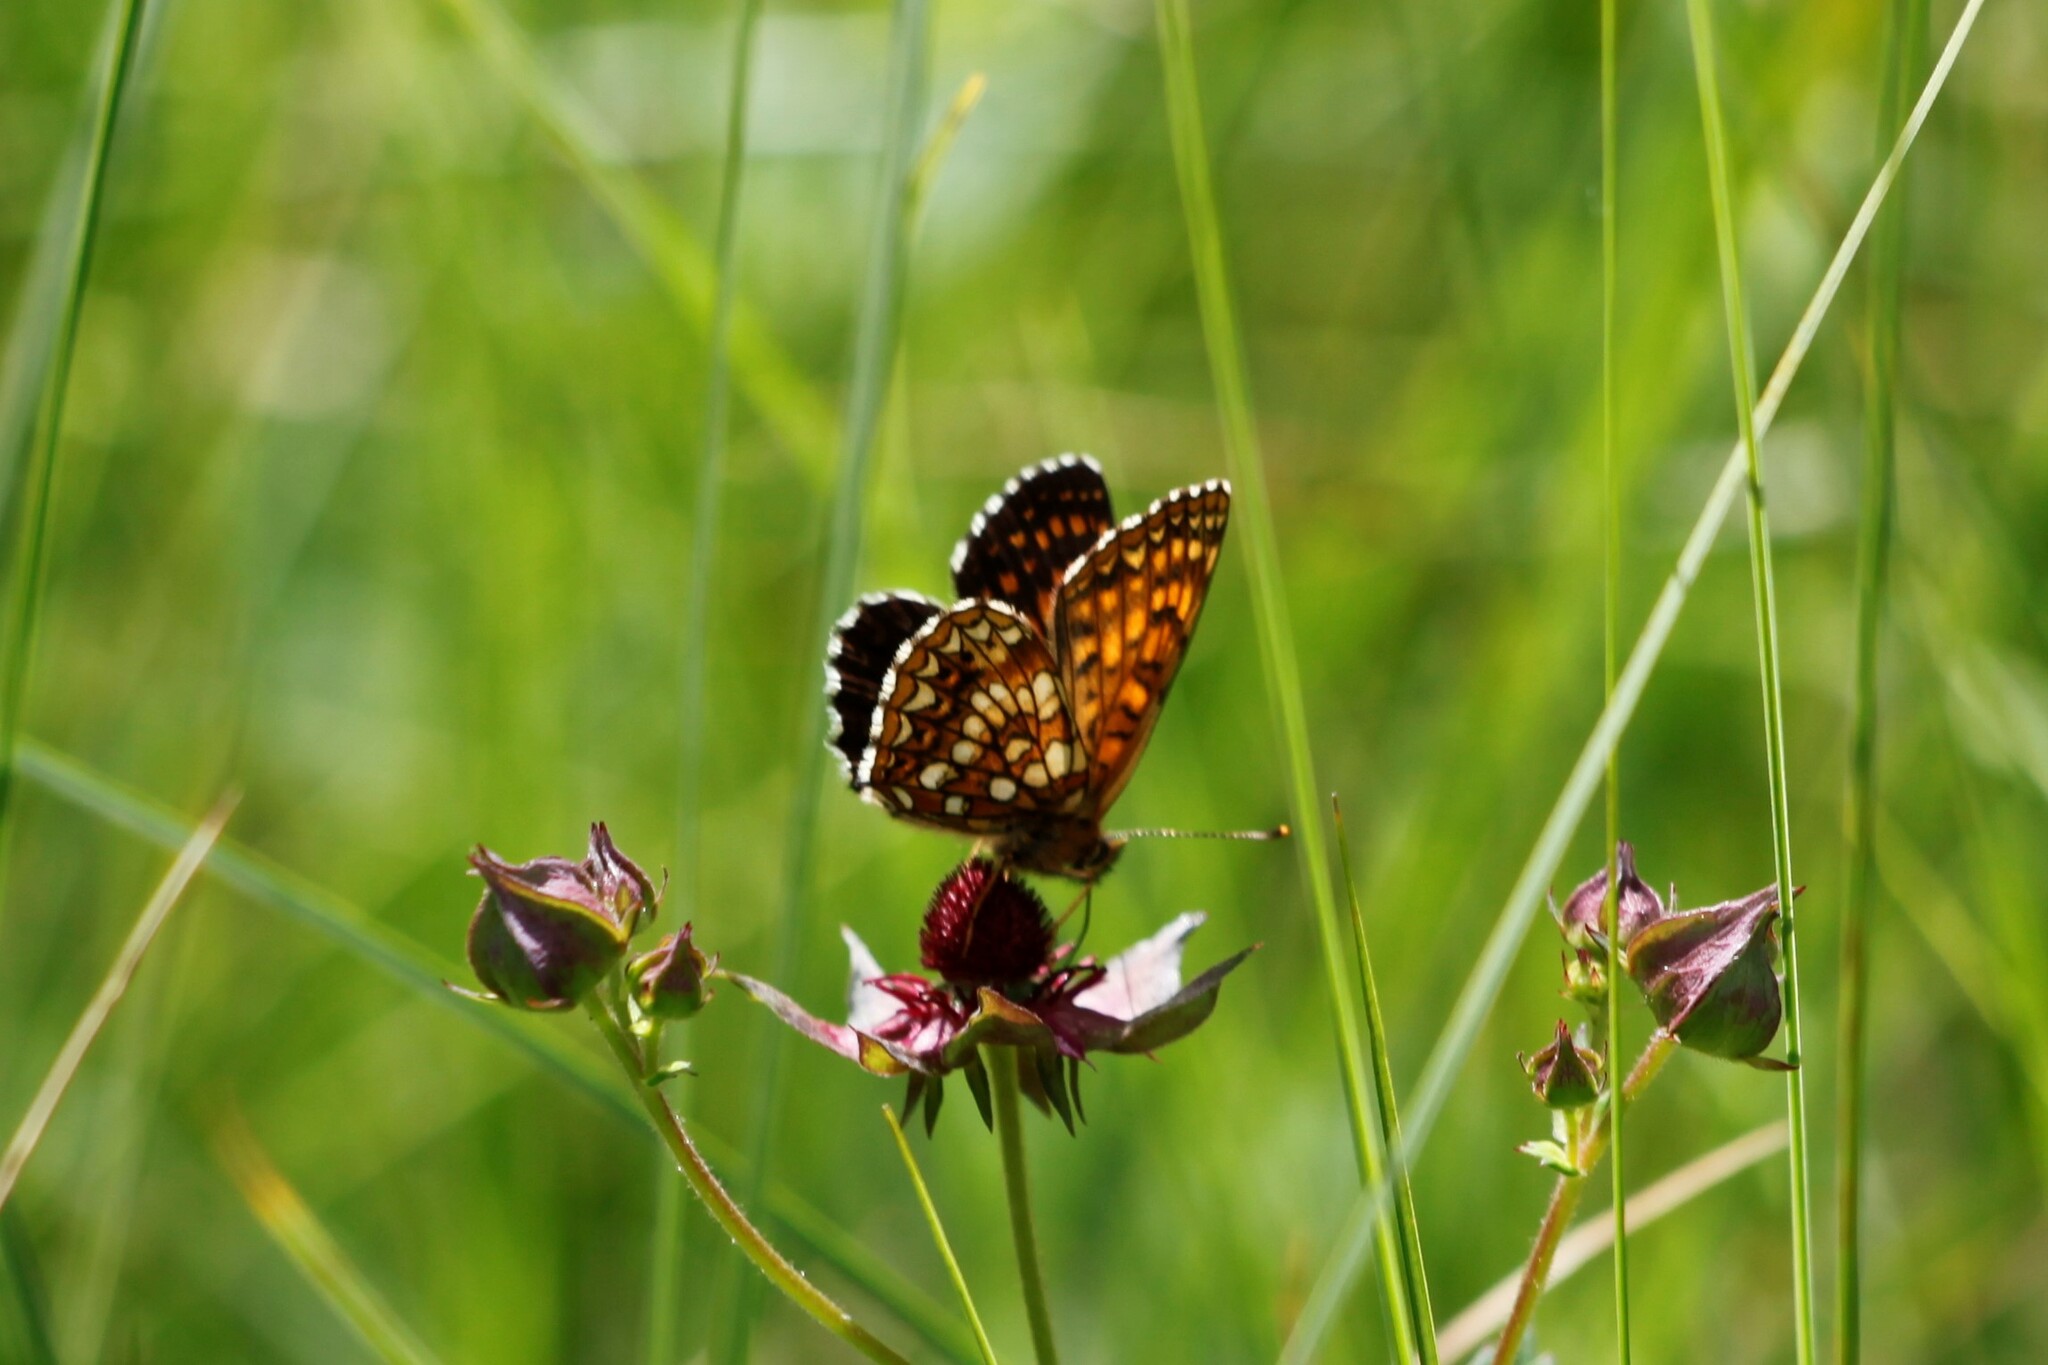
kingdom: Animalia
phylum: Arthropoda
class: Insecta
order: Lepidoptera
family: Nymphalidae
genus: Melitaea
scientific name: Melitaea diamina
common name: False heath fritillary
